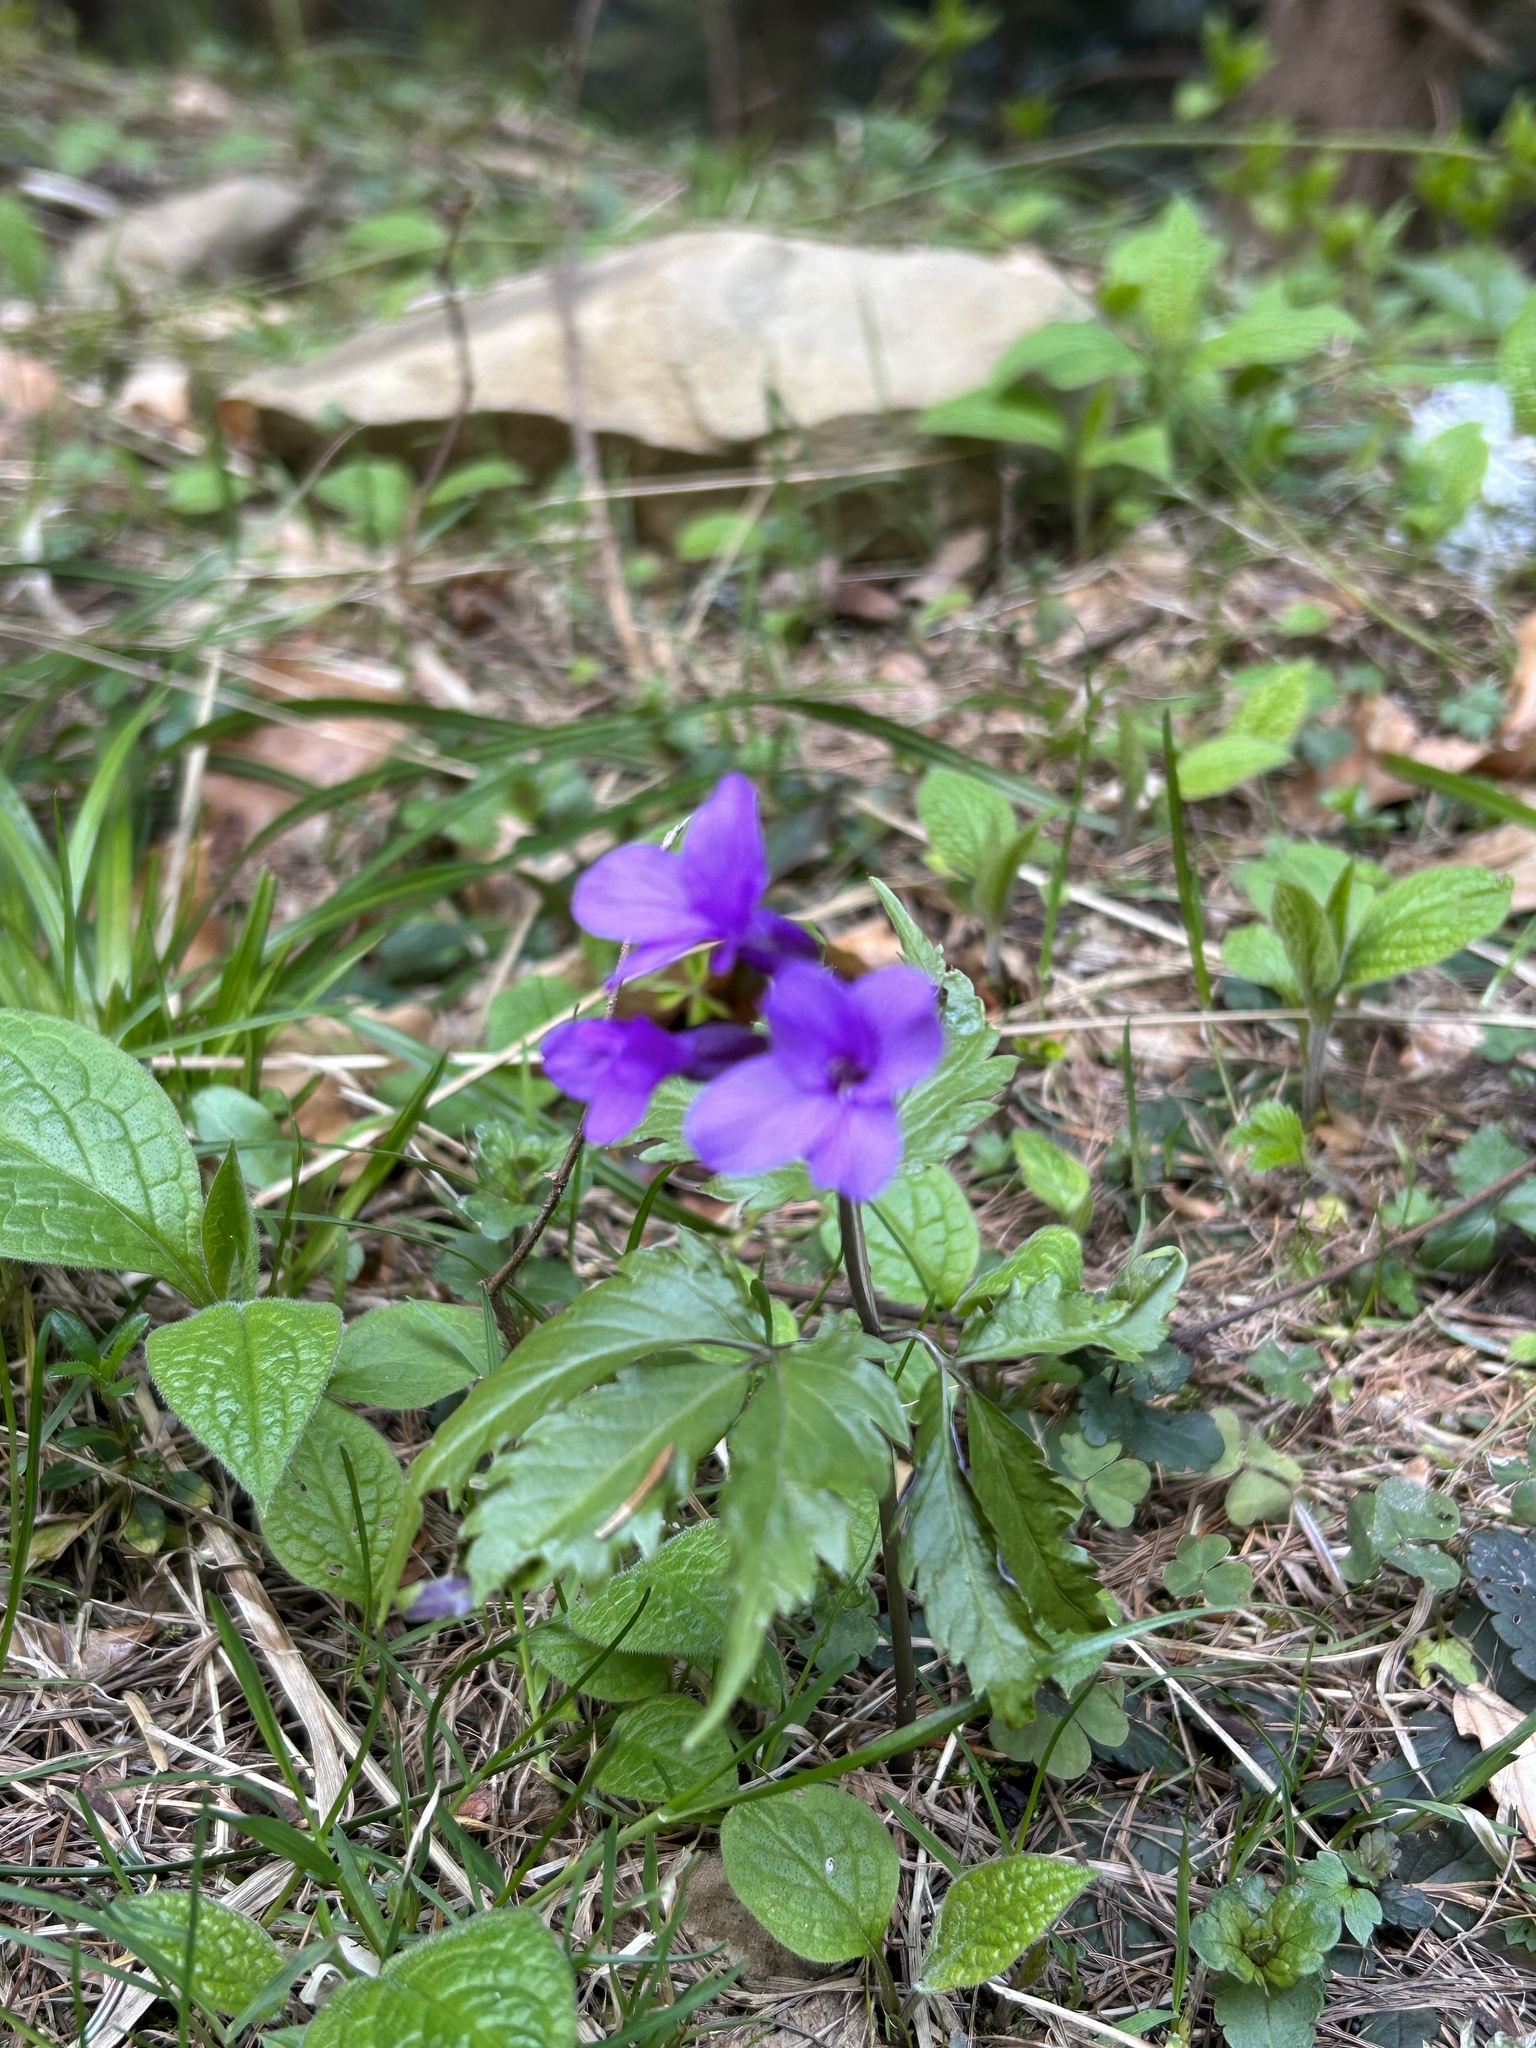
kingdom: Plantae
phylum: Tracheophyta
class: Magnoliopsida
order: Brassicales
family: Brassicaceae
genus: Cardamine
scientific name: Cardamine glanduligera
